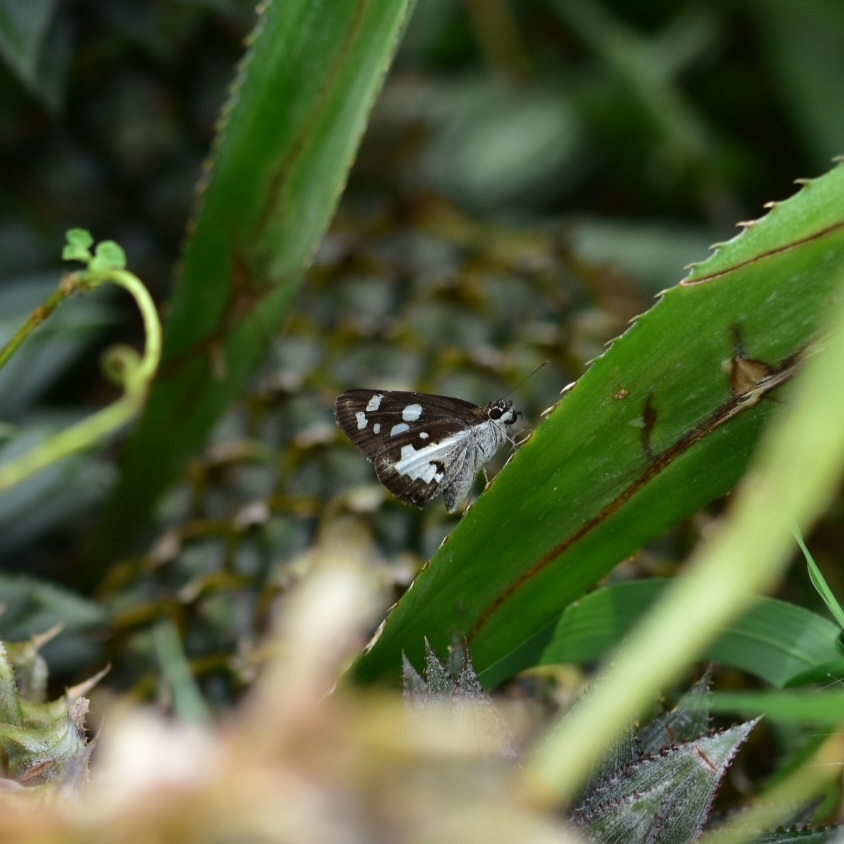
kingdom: Animalia
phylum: Arthropoda
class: Insecta
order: Lepidoptera
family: Hesperiidae
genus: Udaspes
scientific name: Udaspes folus
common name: Grass demon
